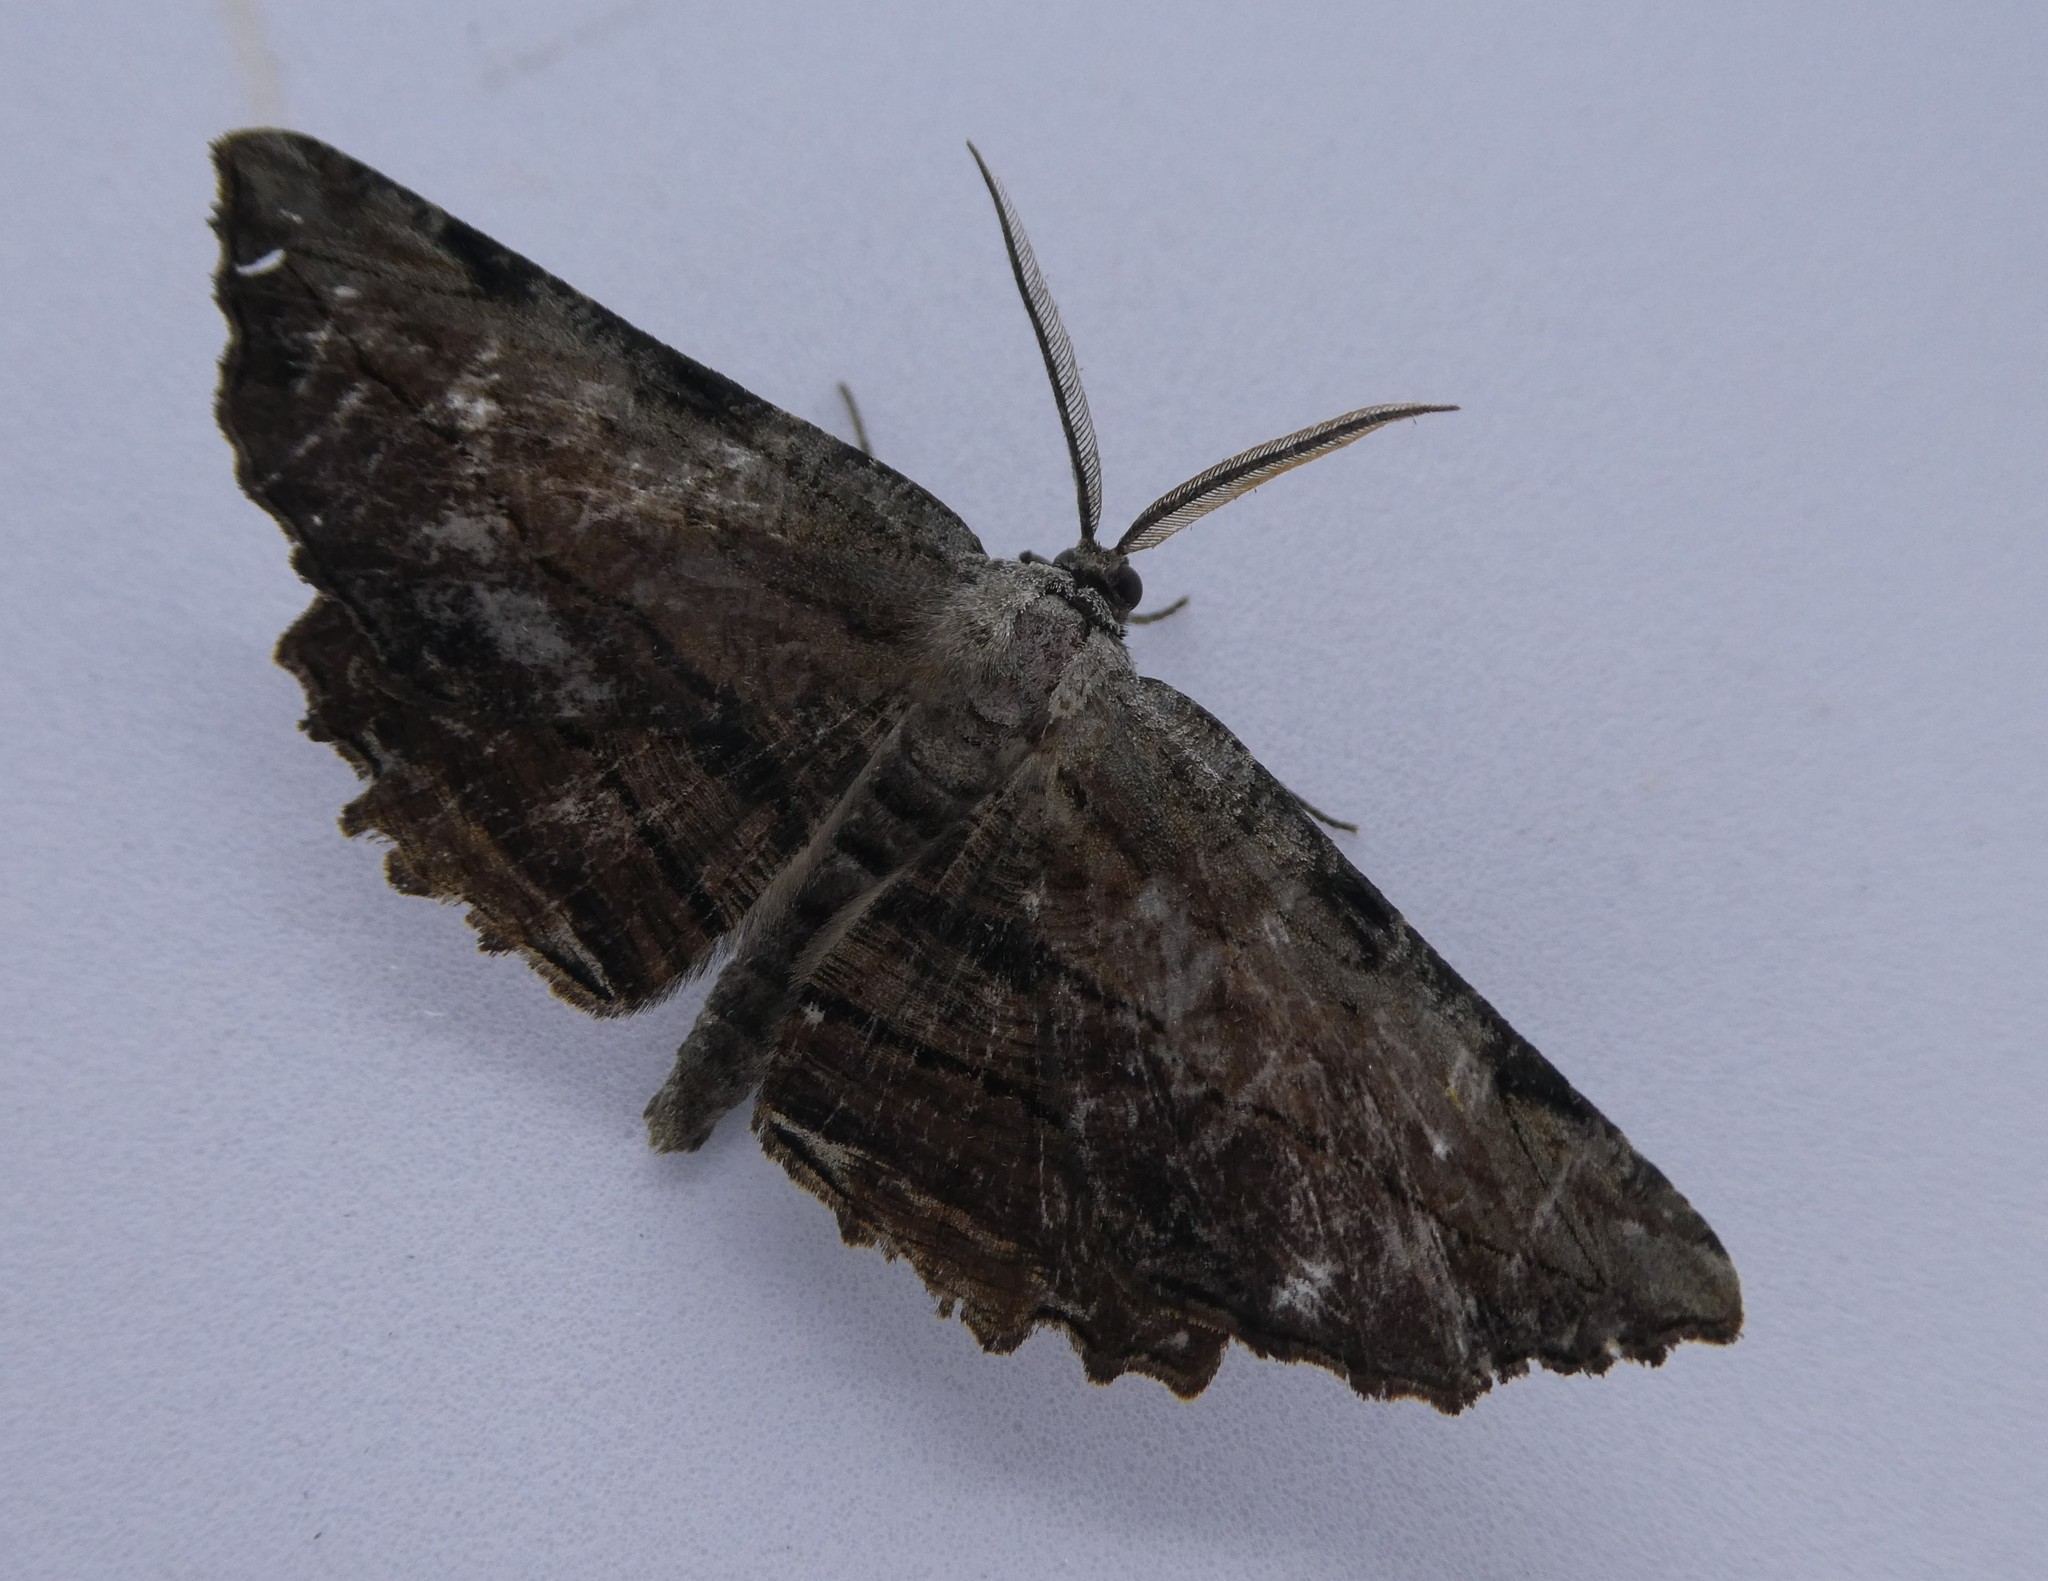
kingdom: Animalia
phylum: Arthropoda
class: Insecta
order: Lepidoptera
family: Geometridae
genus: Lytrosis
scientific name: Lytrosis unitaria
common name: Common lytrosis
